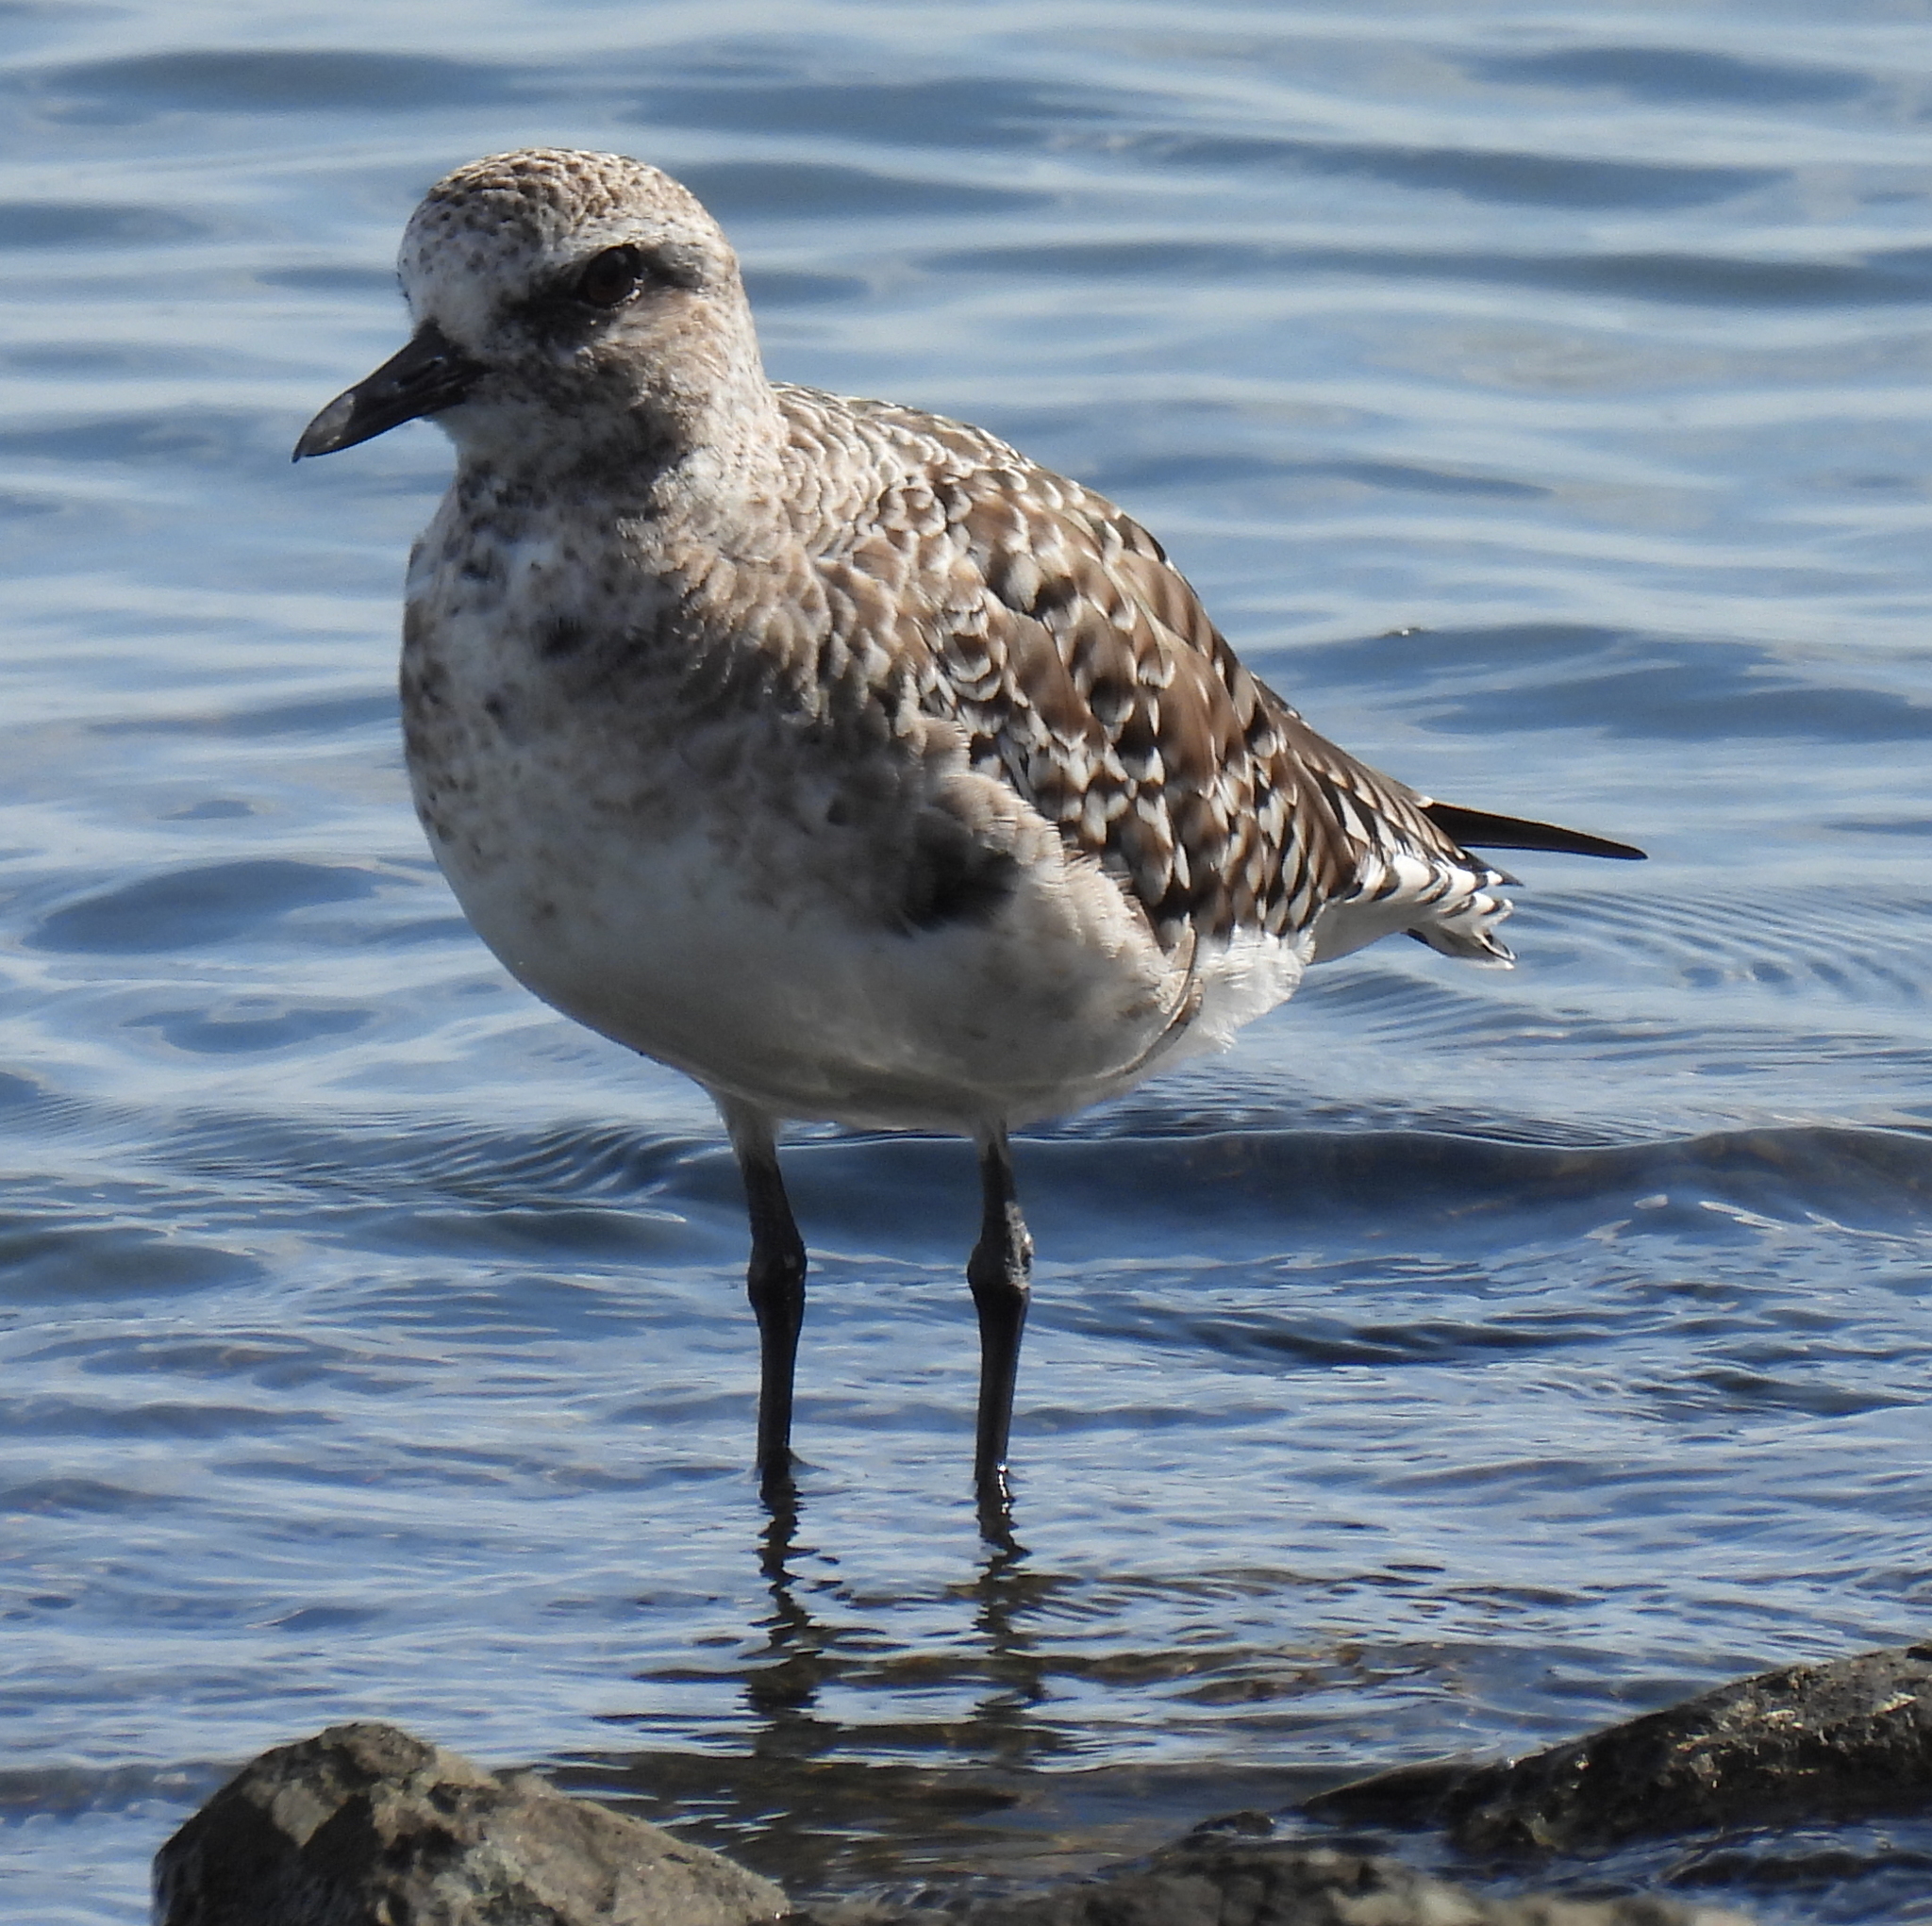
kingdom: Animalia
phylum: Chordata
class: Aves
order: Charadriiformes
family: Charadriidae
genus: Pluvialis
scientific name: Pluvialis squatarola
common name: Grey plover
